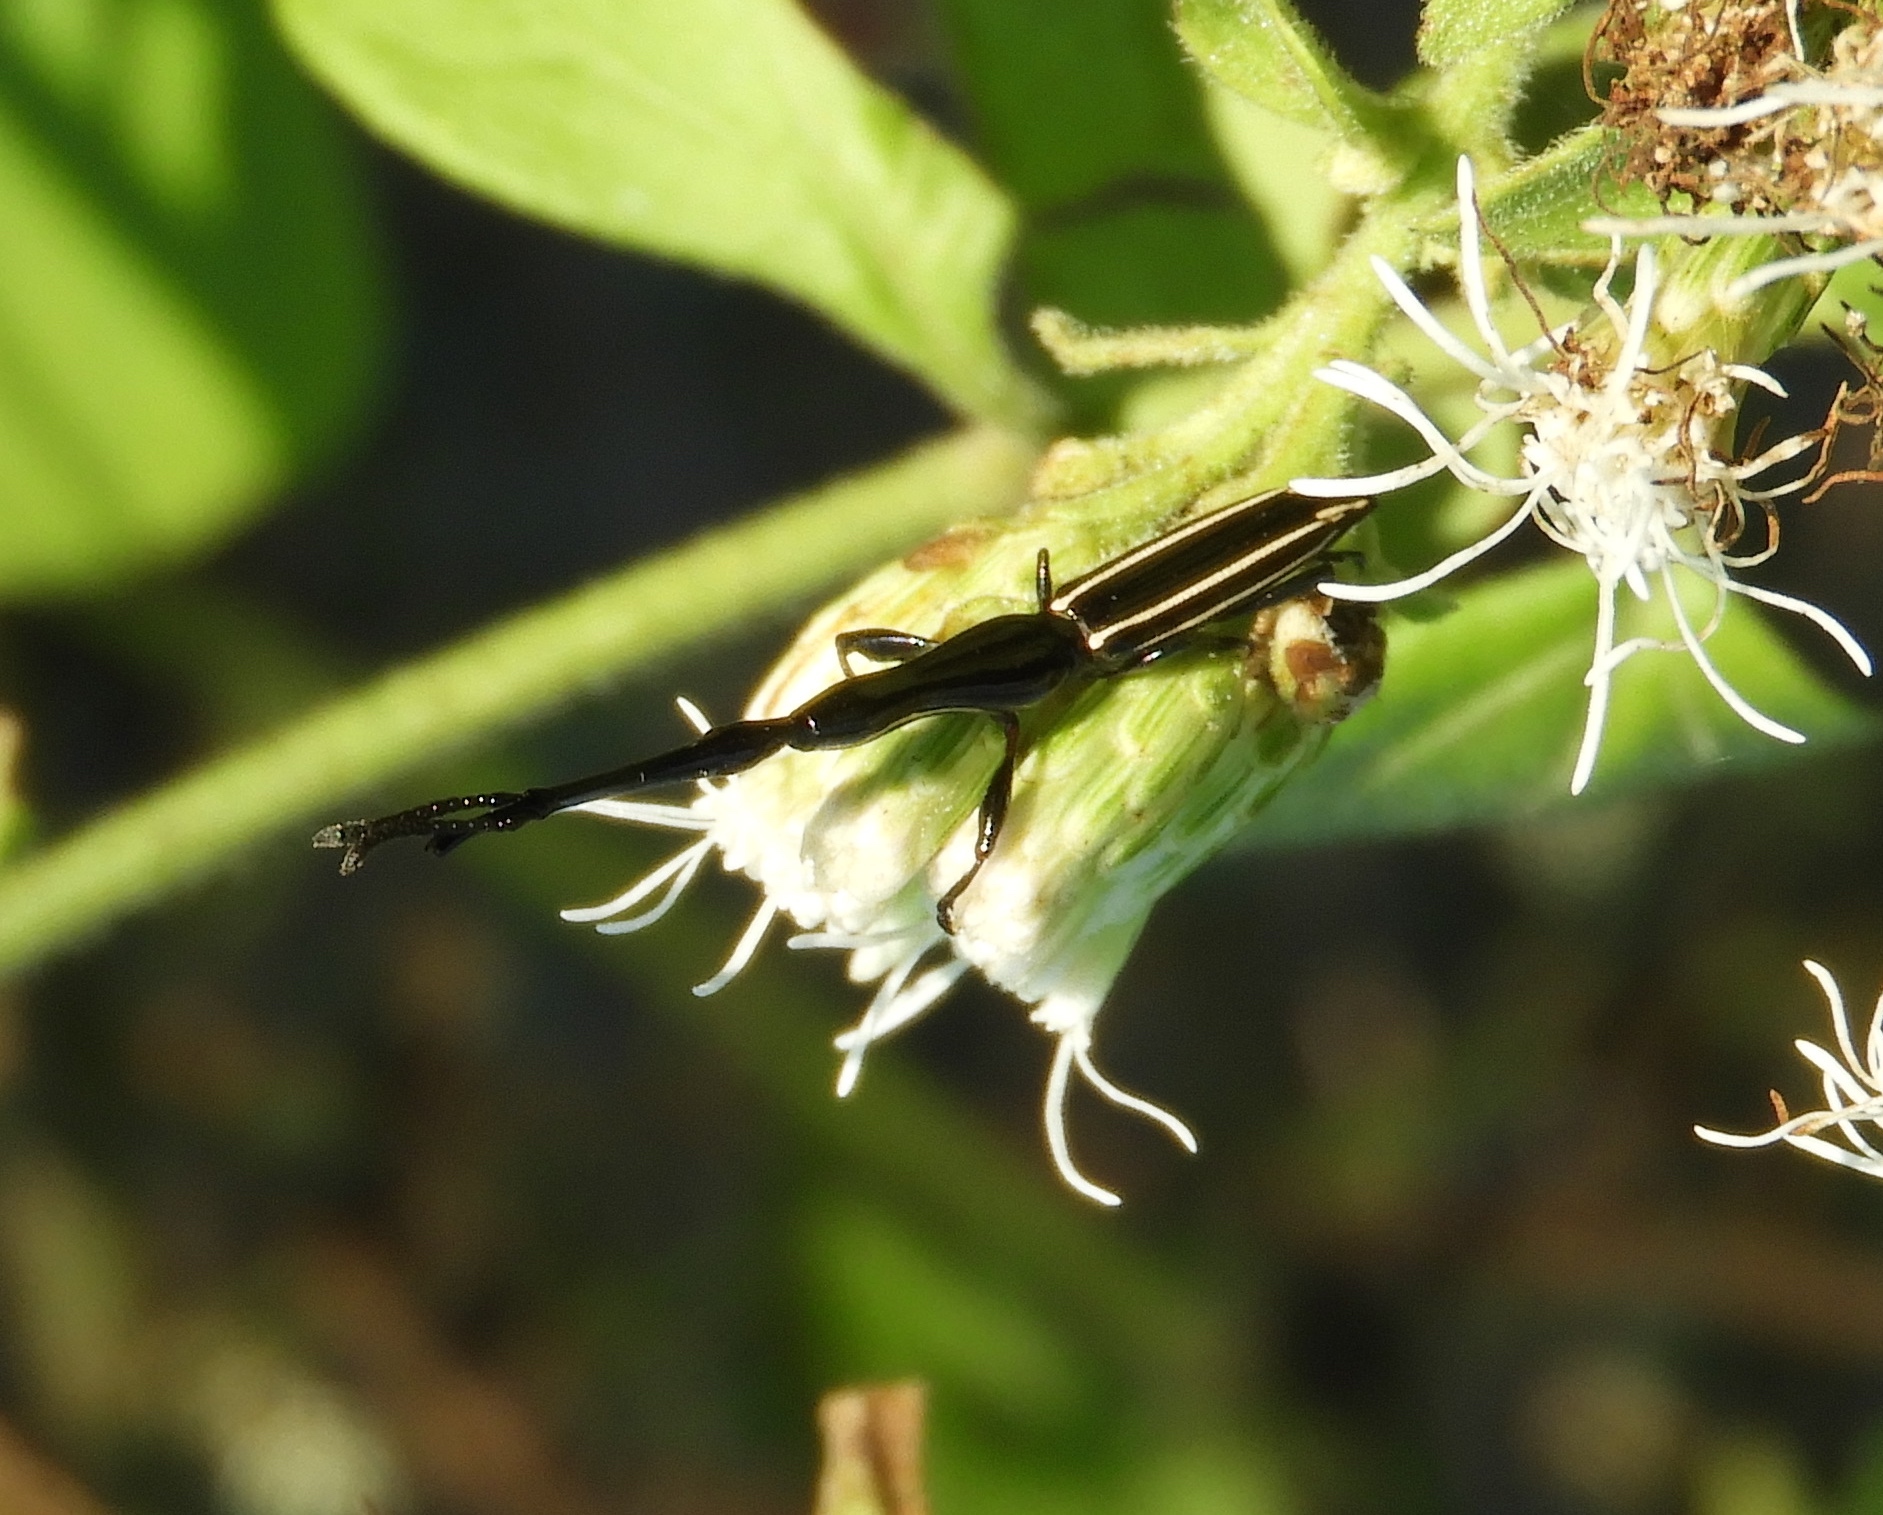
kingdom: Animalia
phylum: Arthropoda
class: Insecta
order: Coleoptera
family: Brentidae
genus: Brentus
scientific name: Brentus anchorago
